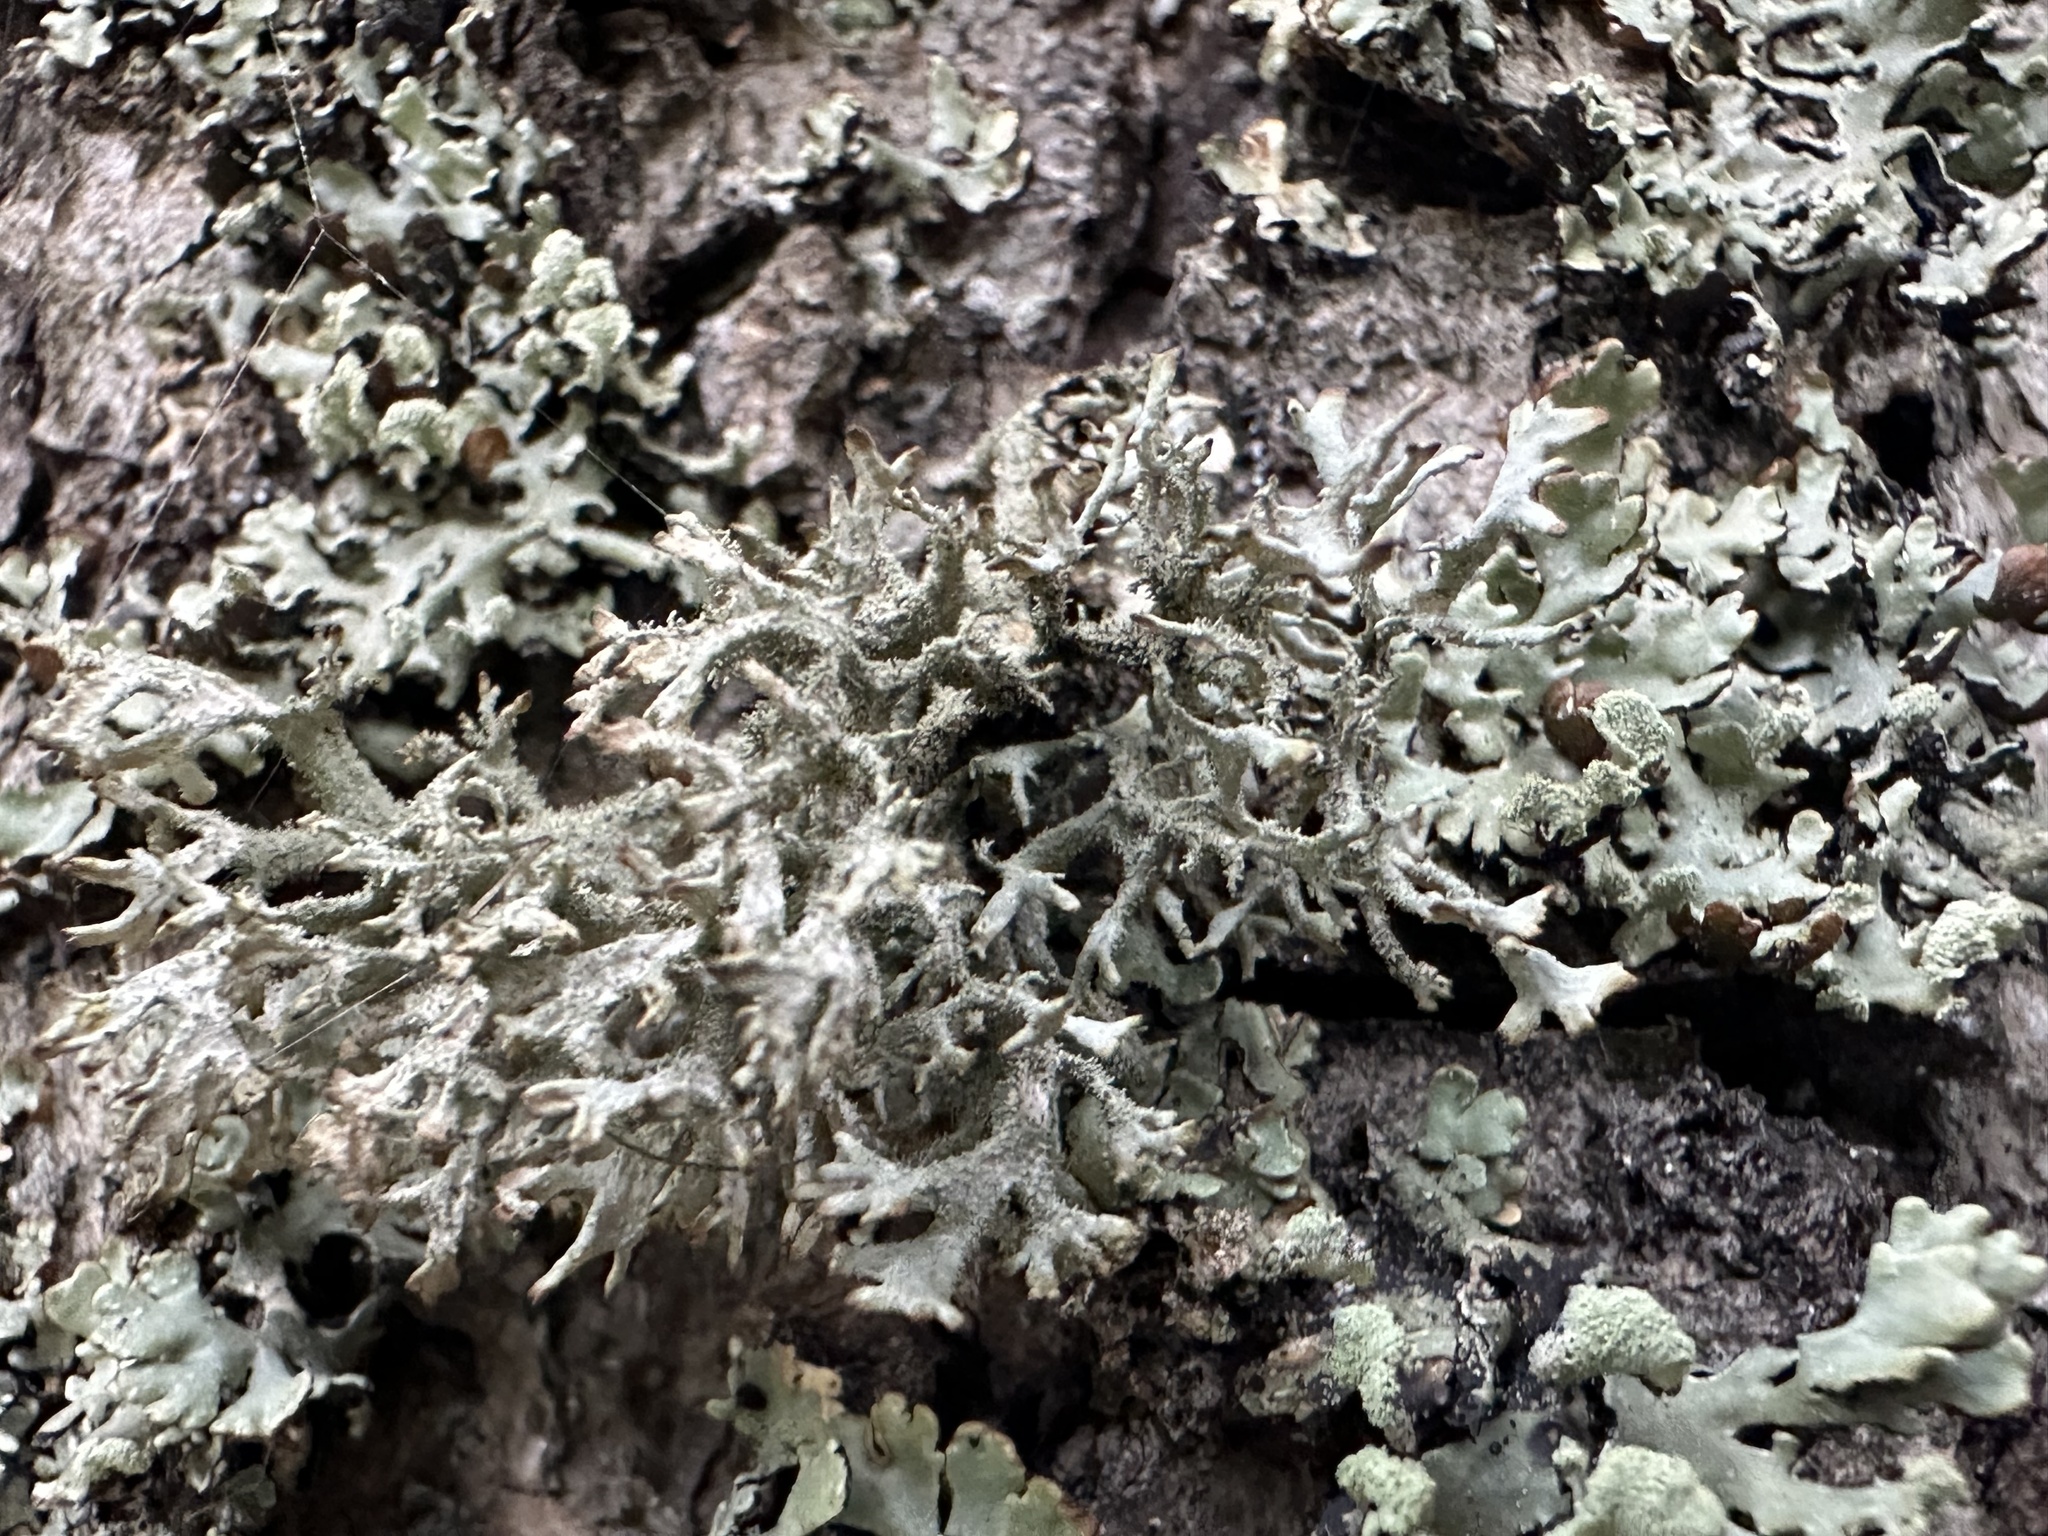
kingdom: Fungi
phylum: Ascomycota
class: Lecanoromycetes
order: Lecanorales
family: Parmeliaceae
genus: Pseudevernia
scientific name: Pseudevernia furfuracea
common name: Tree moss
